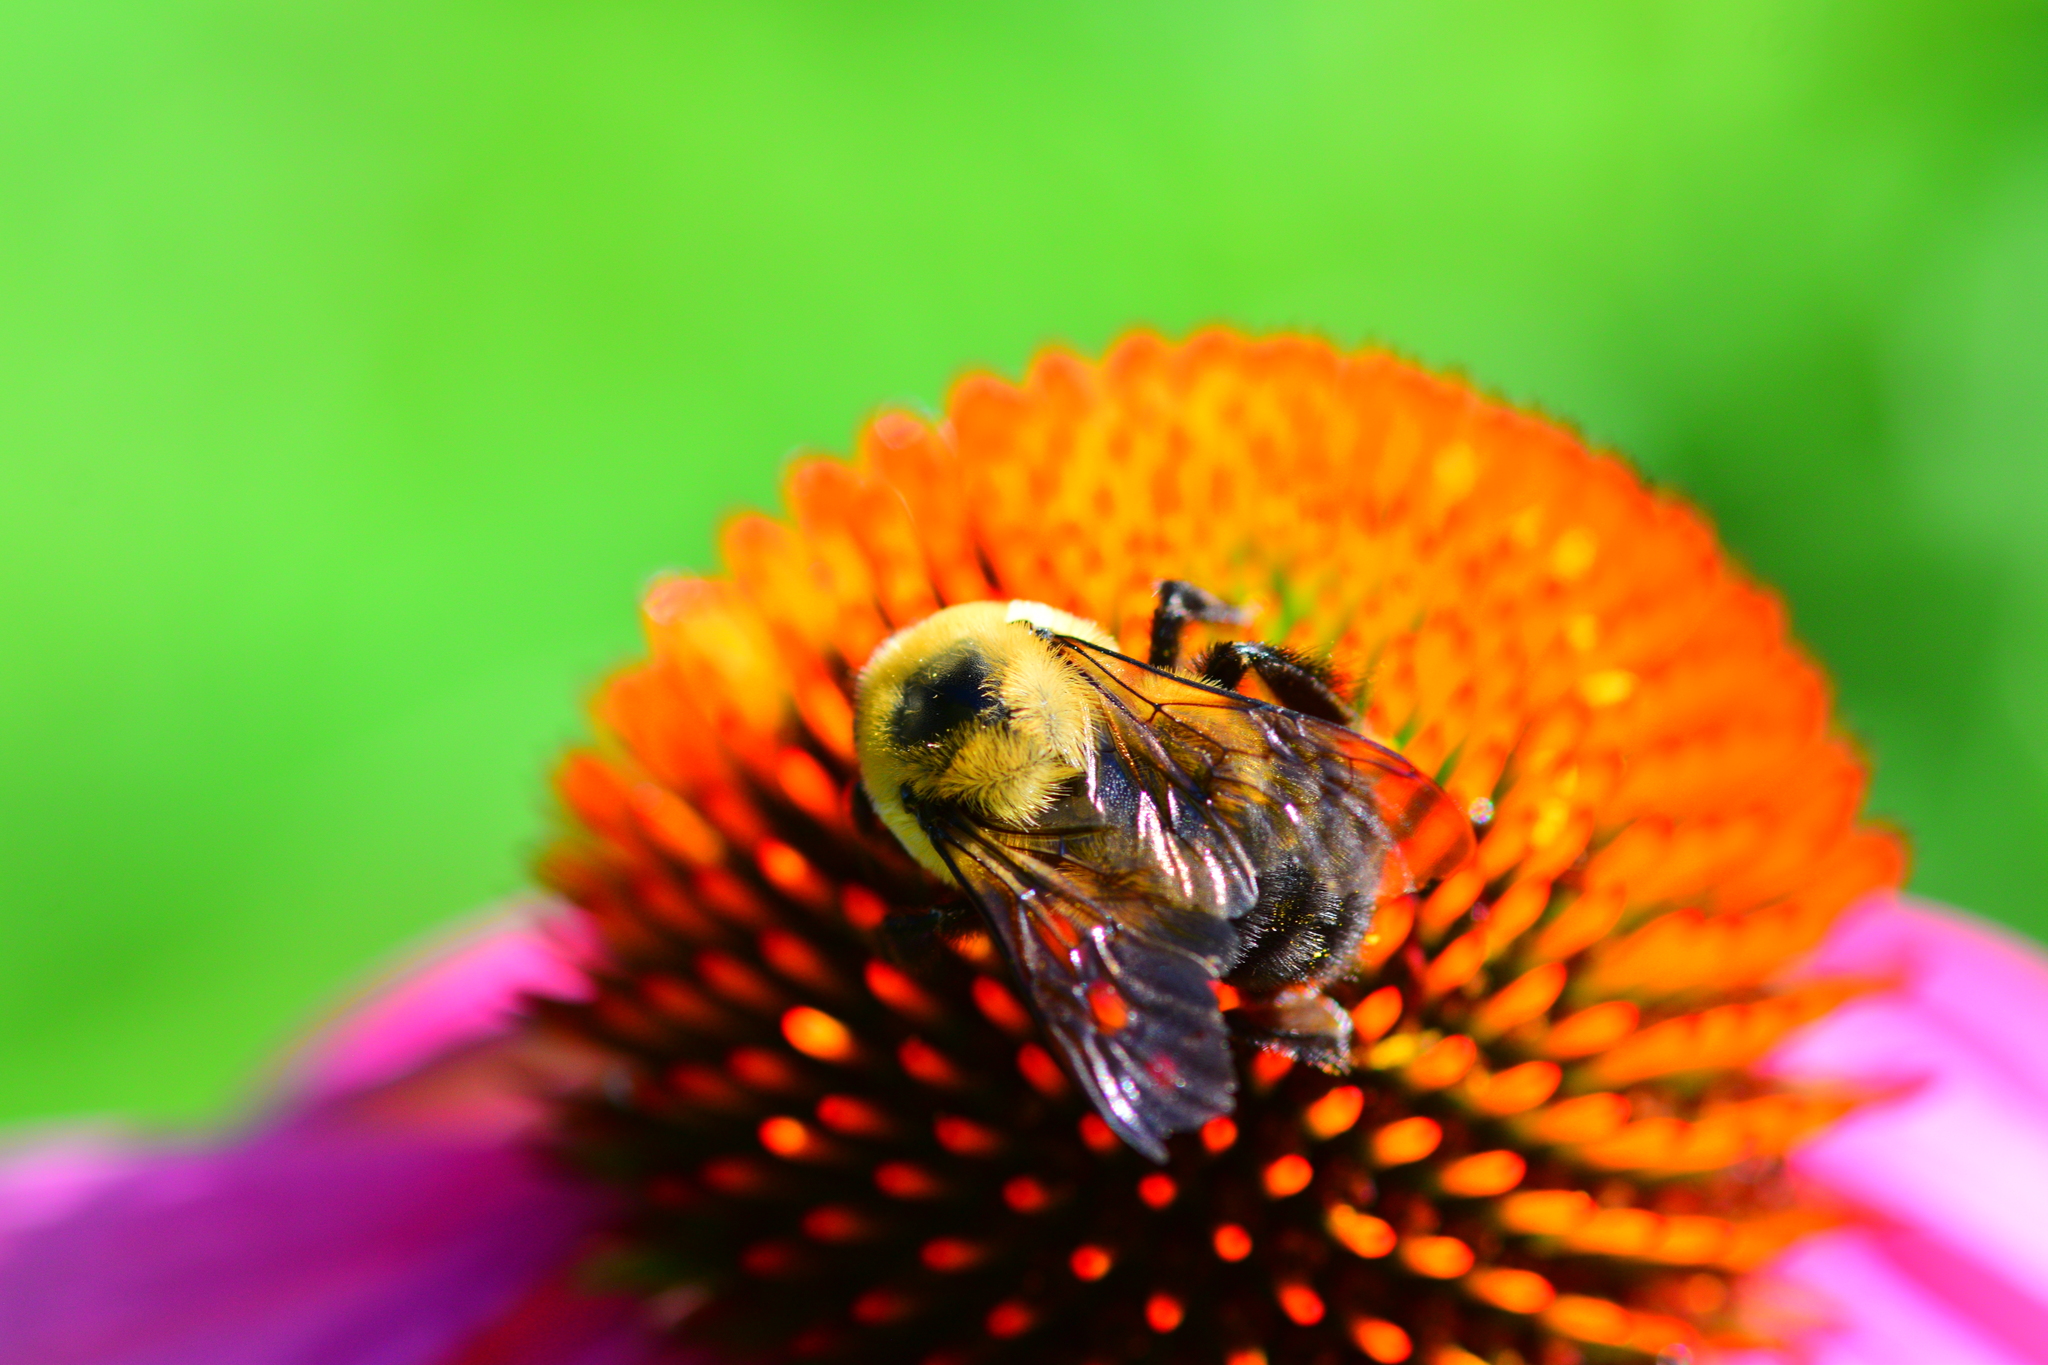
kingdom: Animalia
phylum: Arthropoda
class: Insecta
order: Hymenoptera
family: Apidae
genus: Bombus
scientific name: Bombus griseocollis
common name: Brown-belted bumble bee
